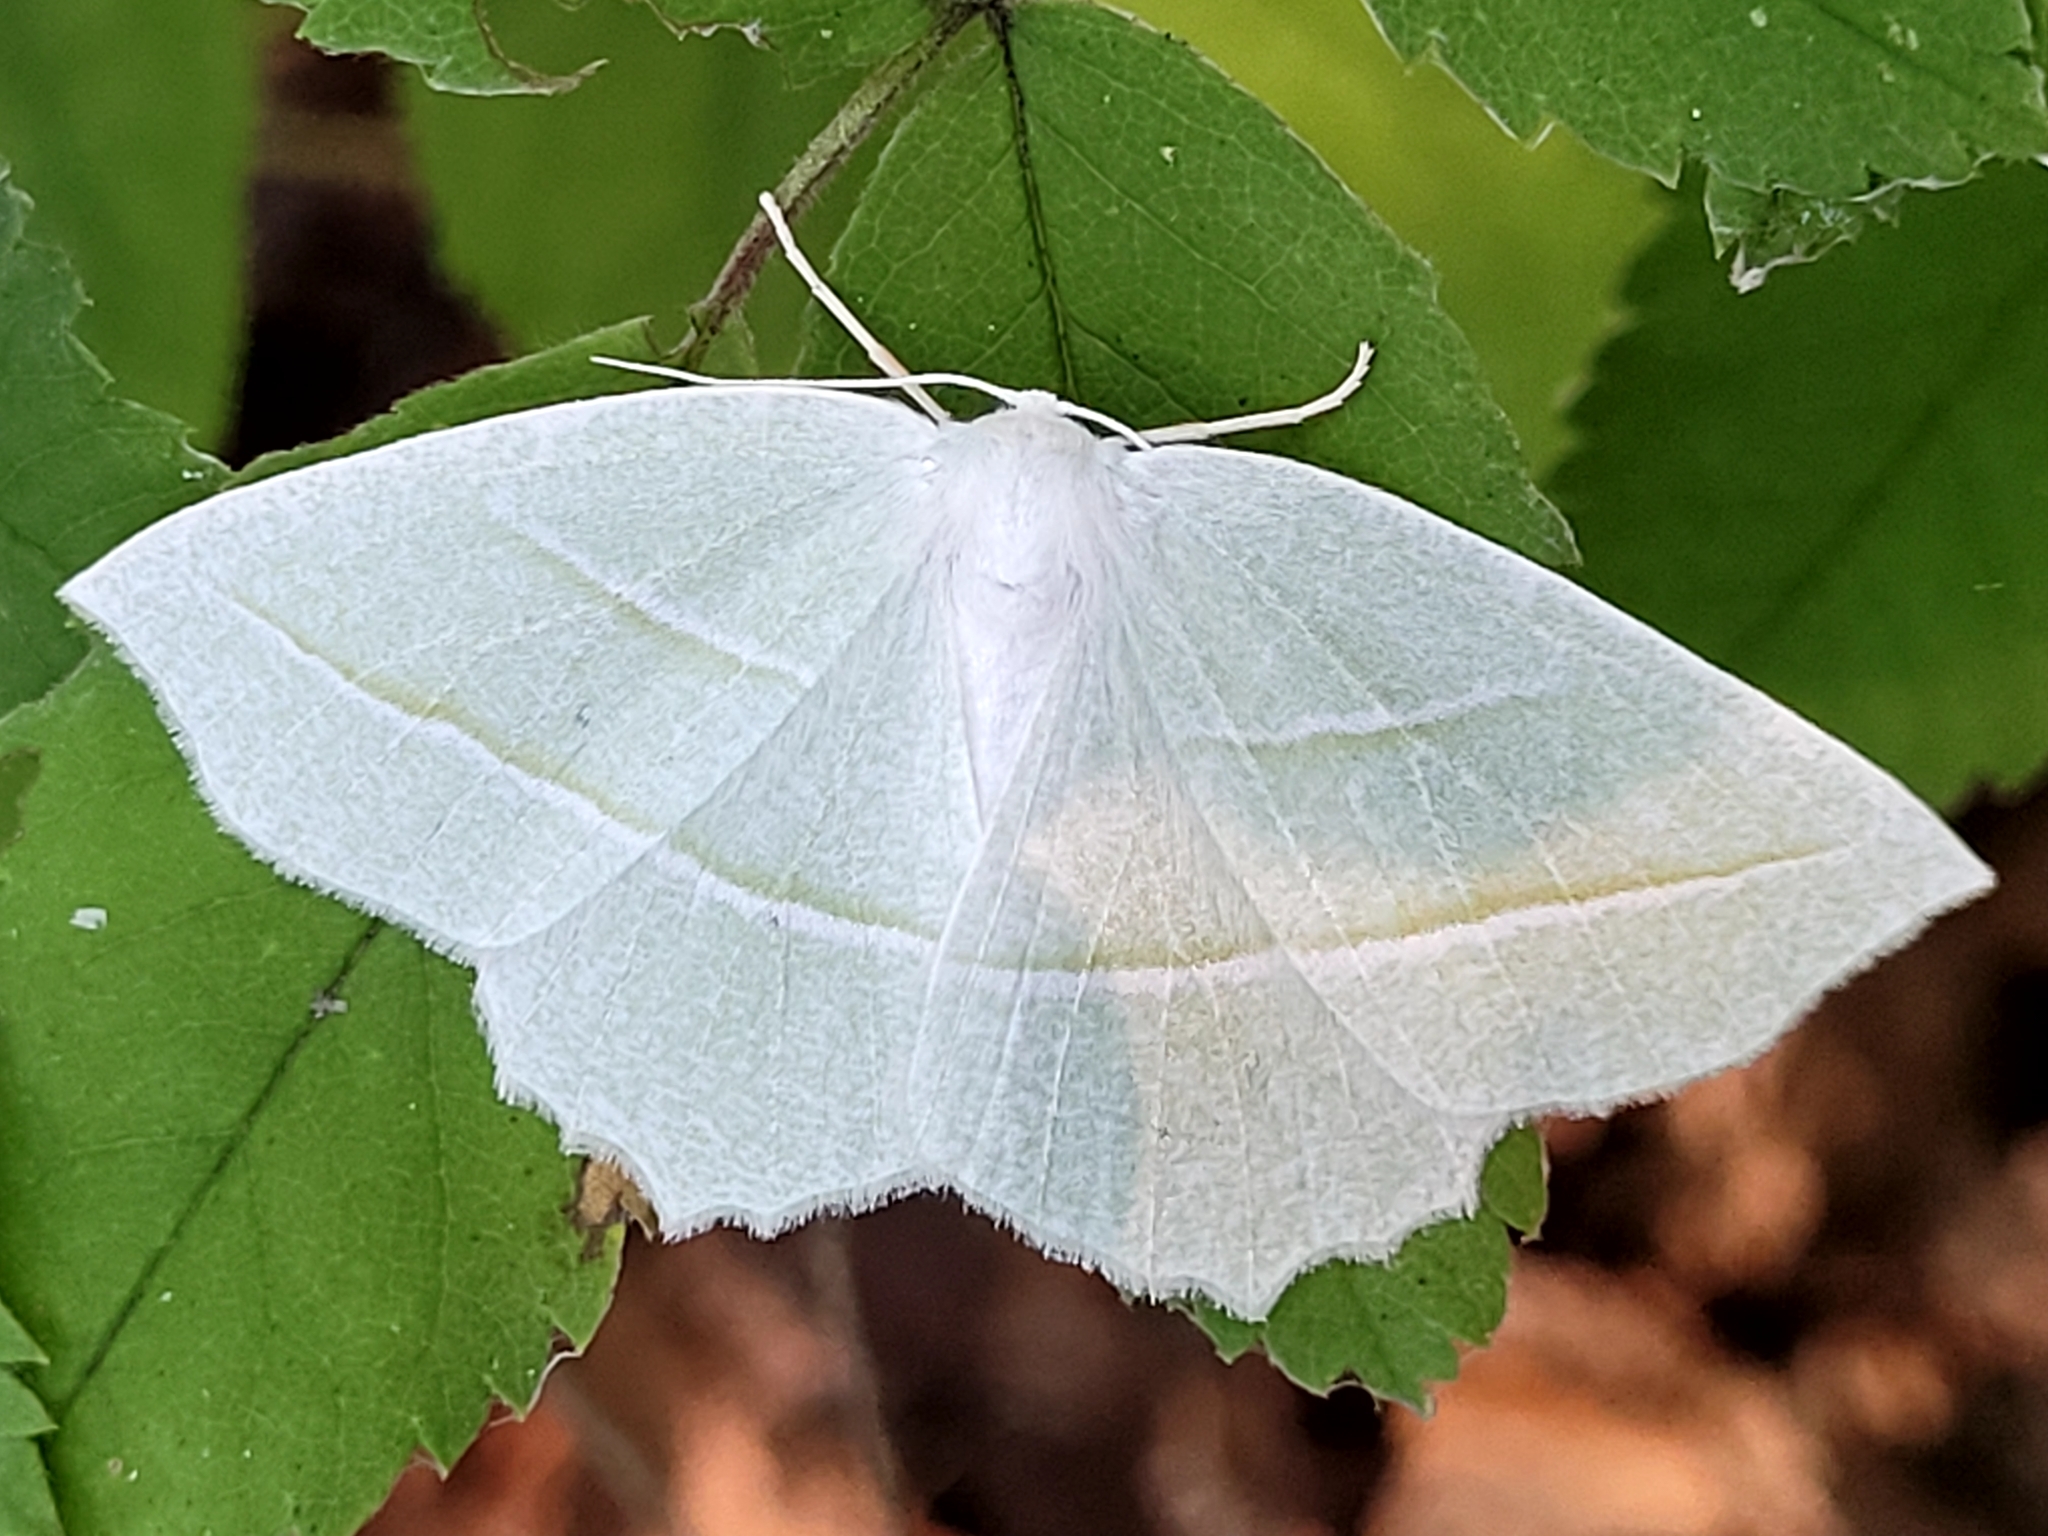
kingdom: Animalia
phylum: Arthropoda
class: Insecta
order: Lepidoptera
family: Geometridae
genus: Campaea
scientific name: Campaea perlata
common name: Fringed looper
